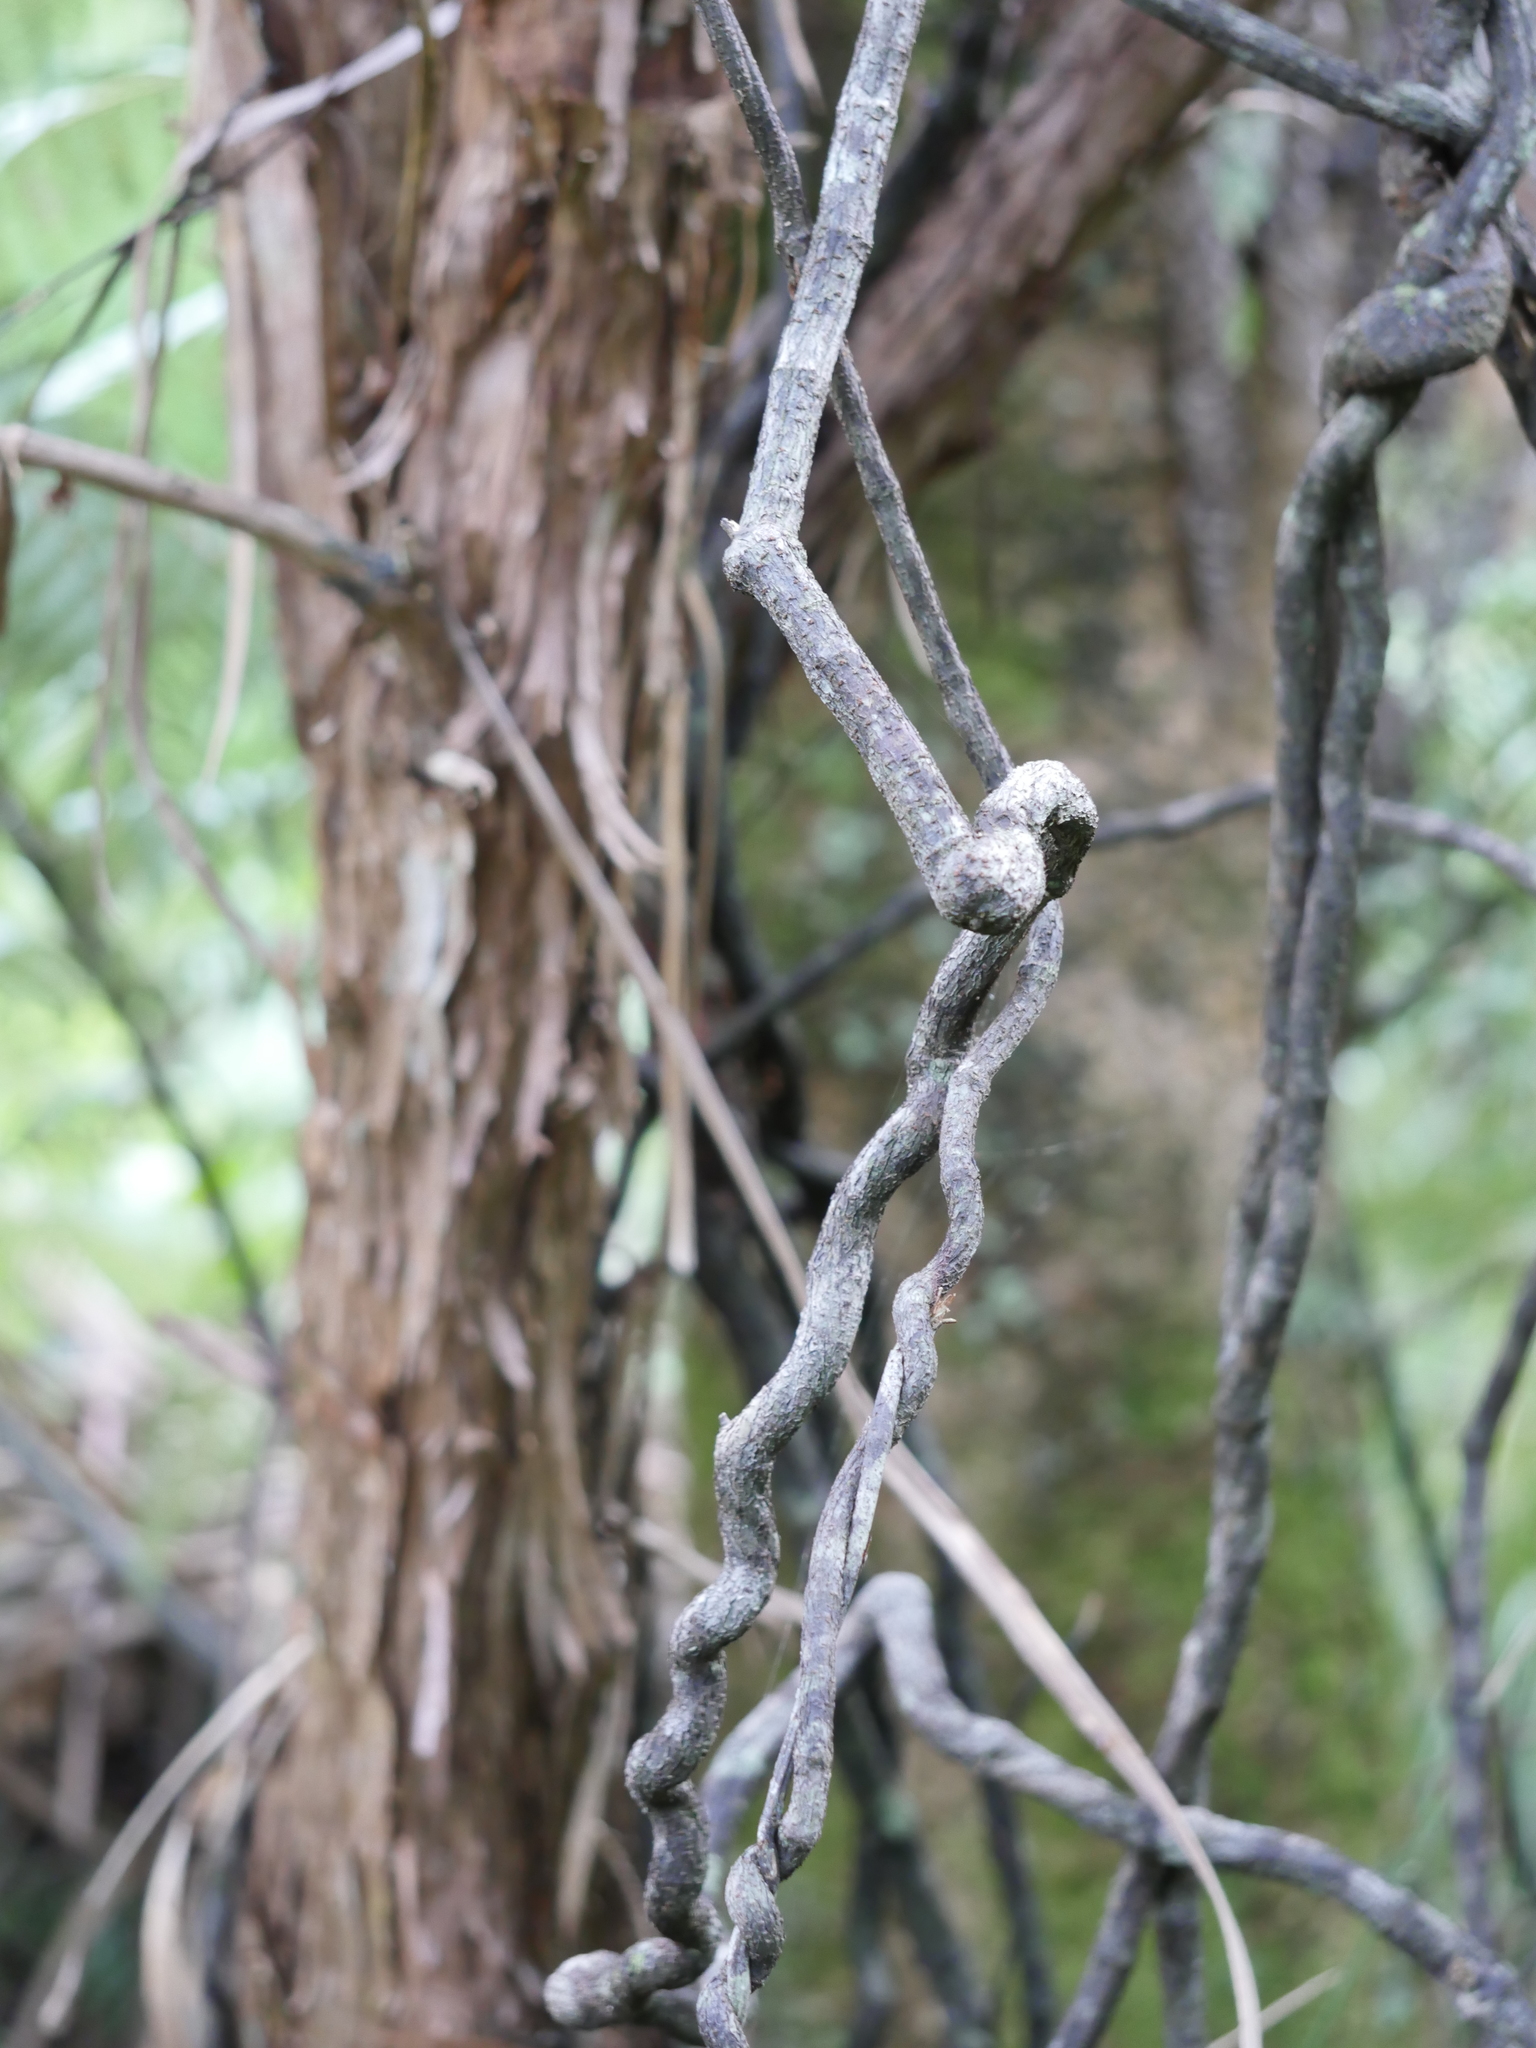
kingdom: Plantae
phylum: Tracheophyta
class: Magnoliopsida
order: Caryophyllales
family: Polygonaceae
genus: Muehlenbeckia
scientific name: Muehlenbeckia australis
